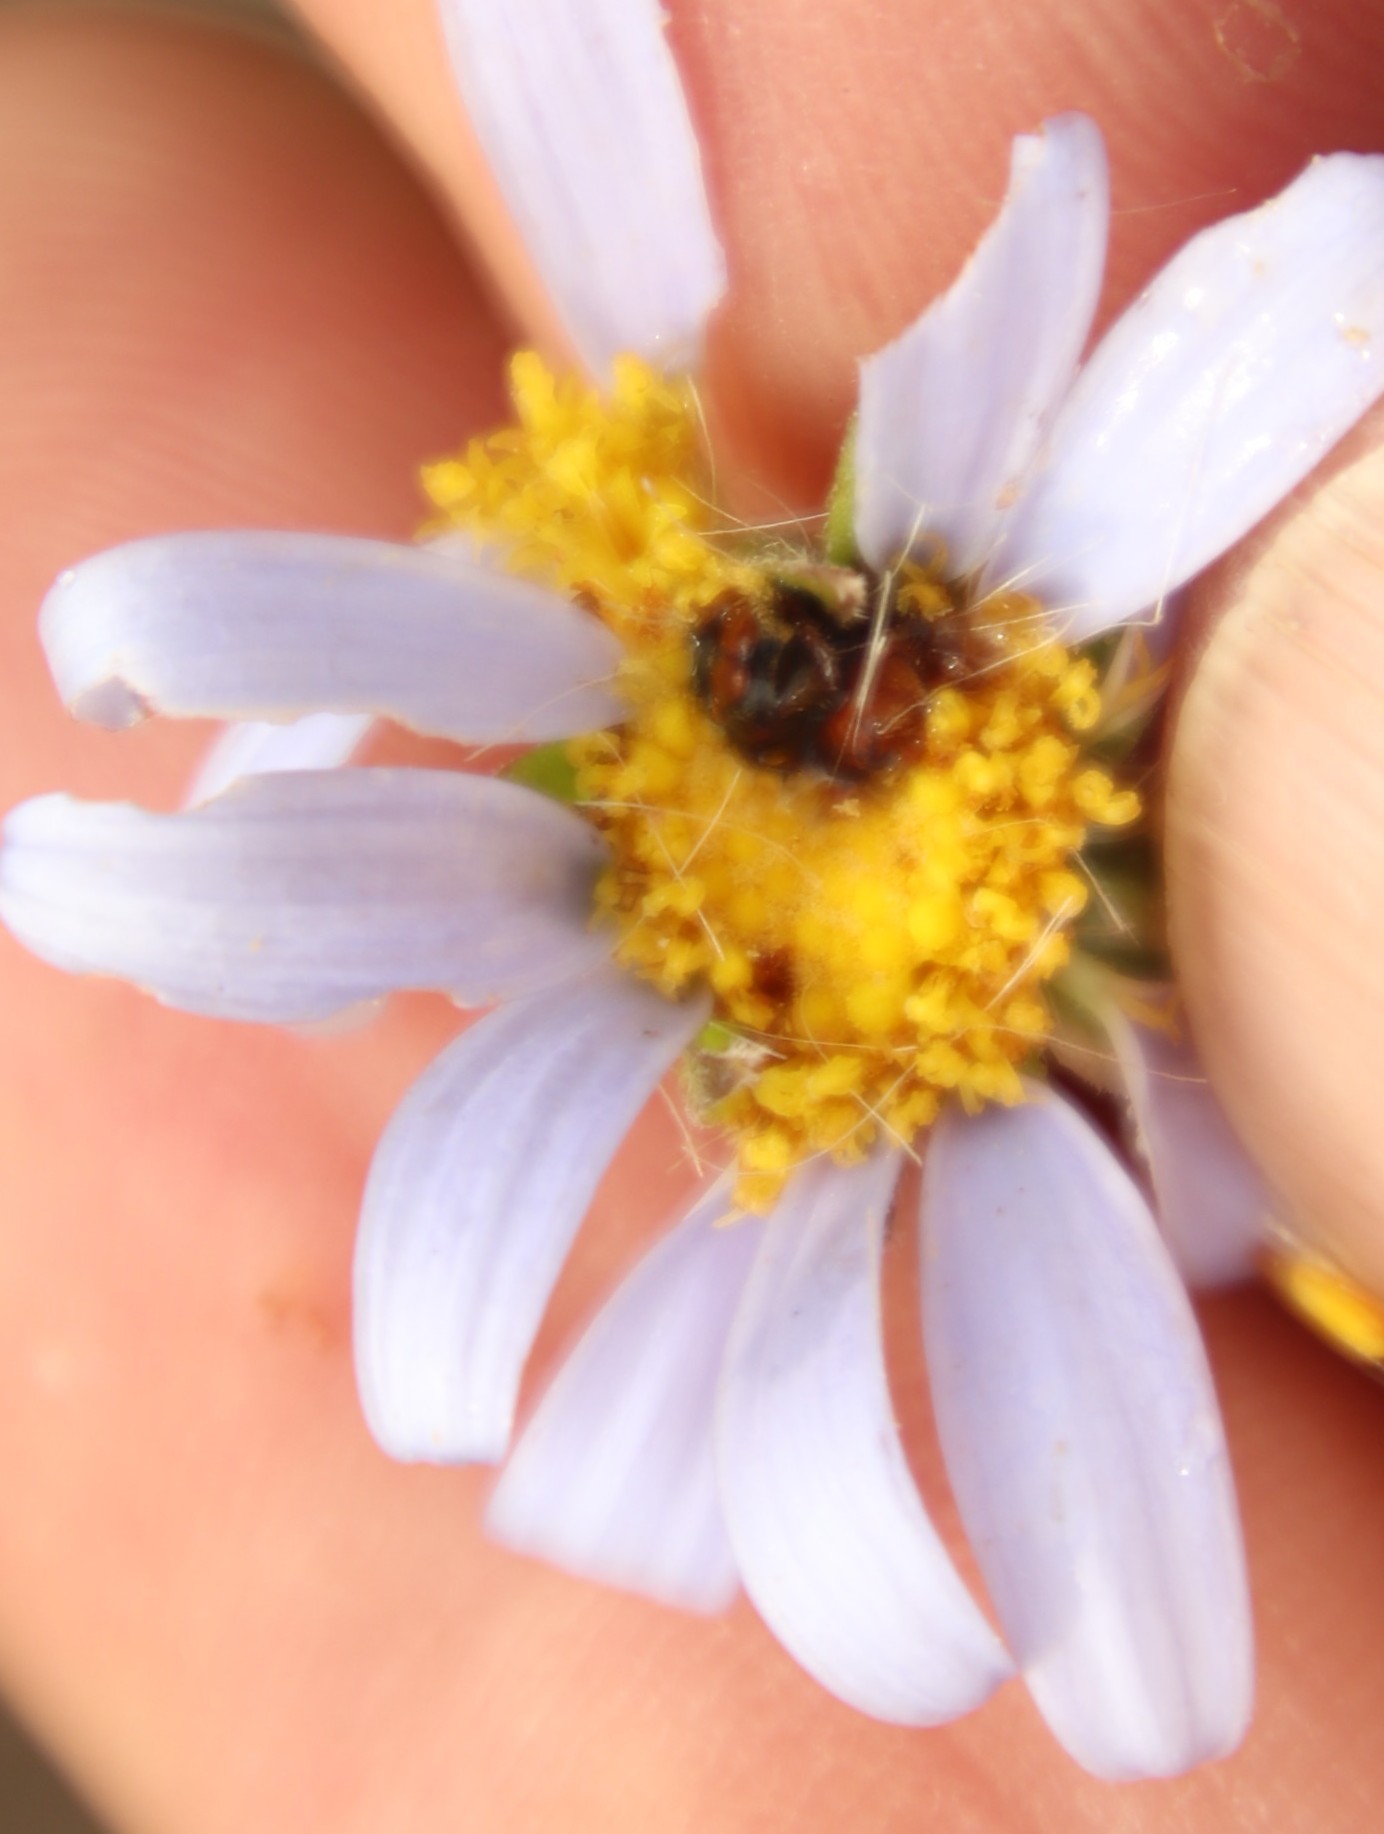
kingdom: Plantae
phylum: Tracheophyta
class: Magnoliopsida
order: Asterales
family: Asteraceae
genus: Felicia
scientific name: Felicia amelloides
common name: Blue marguerite
